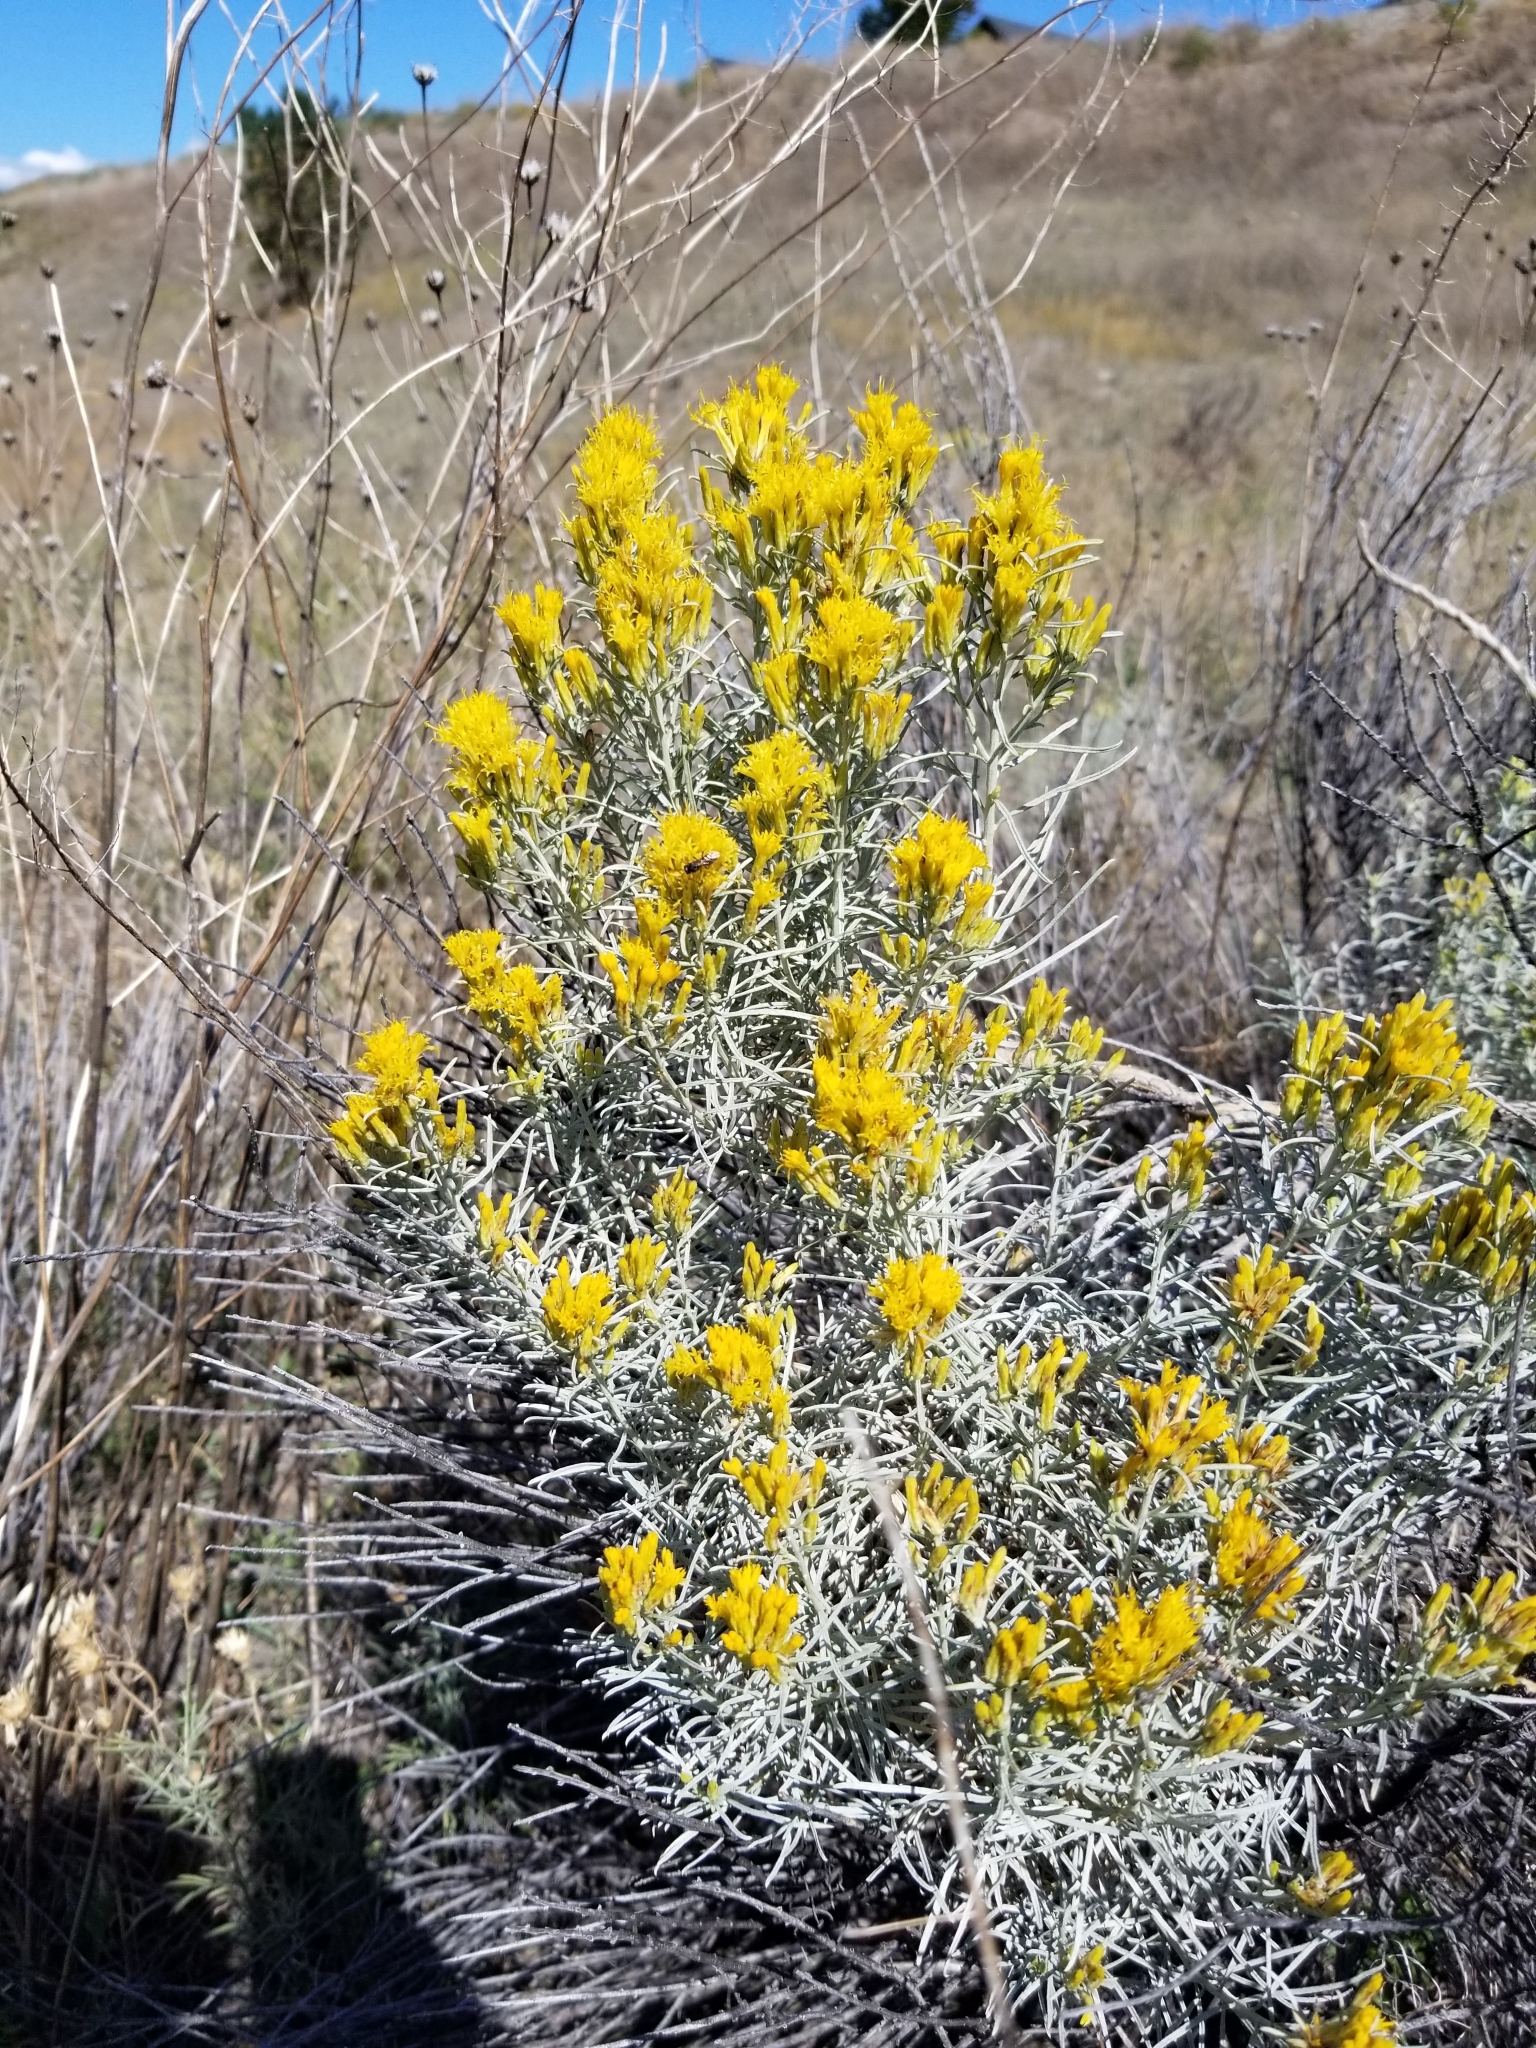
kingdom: Plantae
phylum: Tracheophyta
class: Magnoliopsida
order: Asterales
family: Asteraceae
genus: Ericameria
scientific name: Ericameria nauseosa
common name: Rubber rabbitbrush
